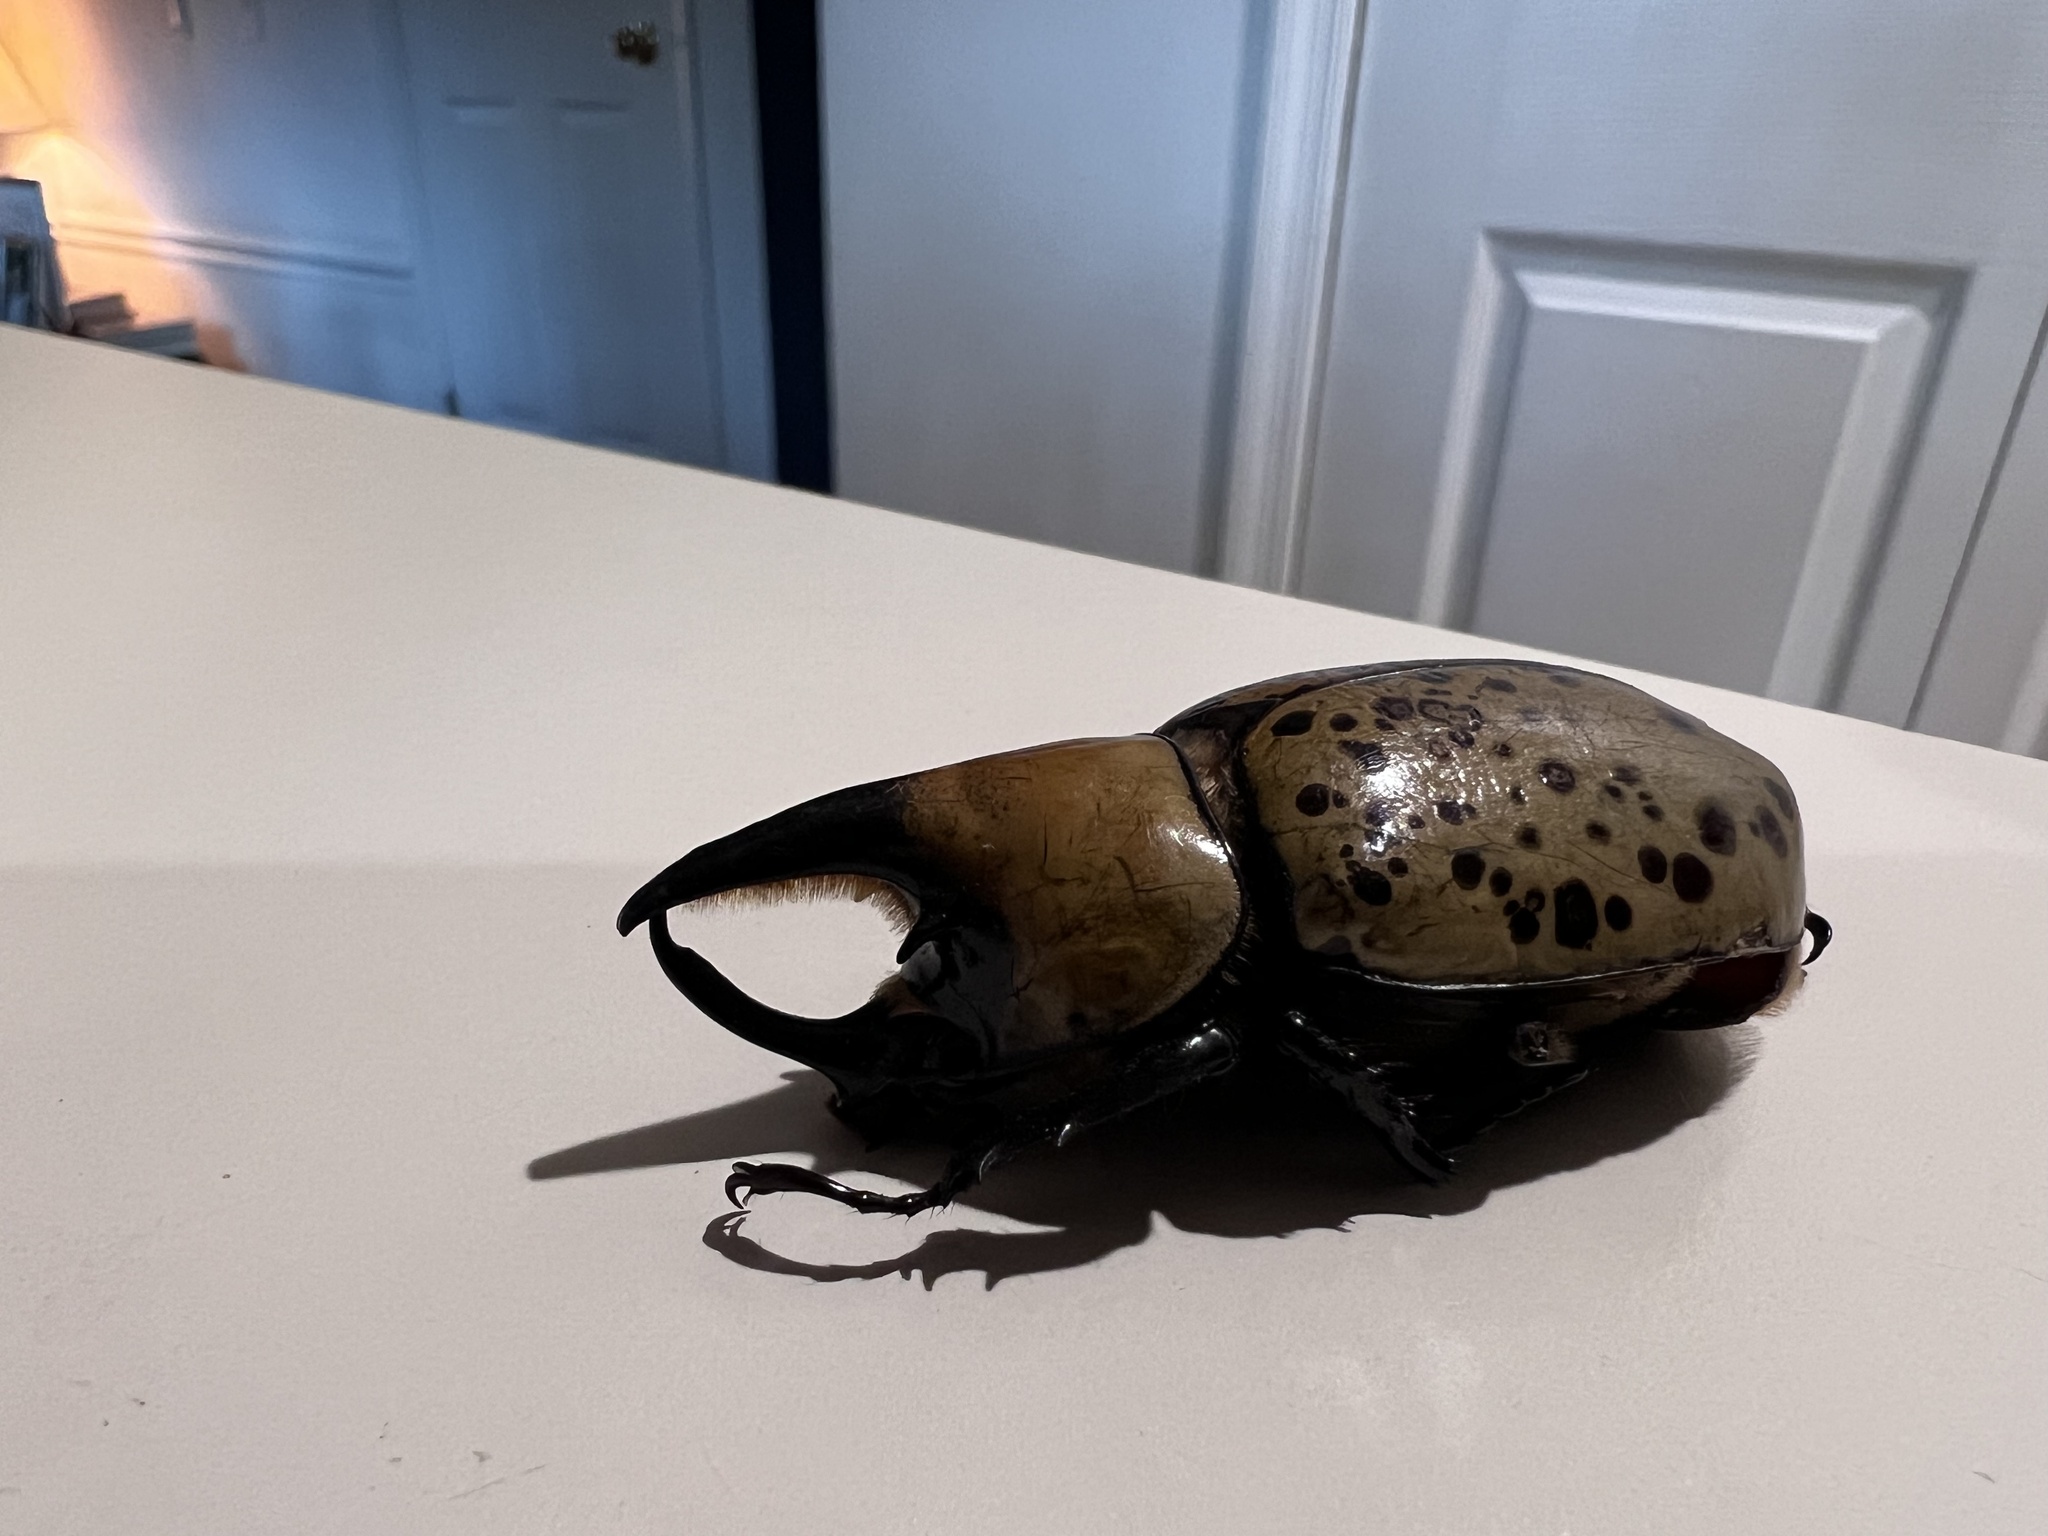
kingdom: Animalia
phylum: Arthropoda
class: Insecta
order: Coleoptera
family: Scarabaeidae
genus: Dynastes
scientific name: Dynastes tityus
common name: Eastern hercules beetle
